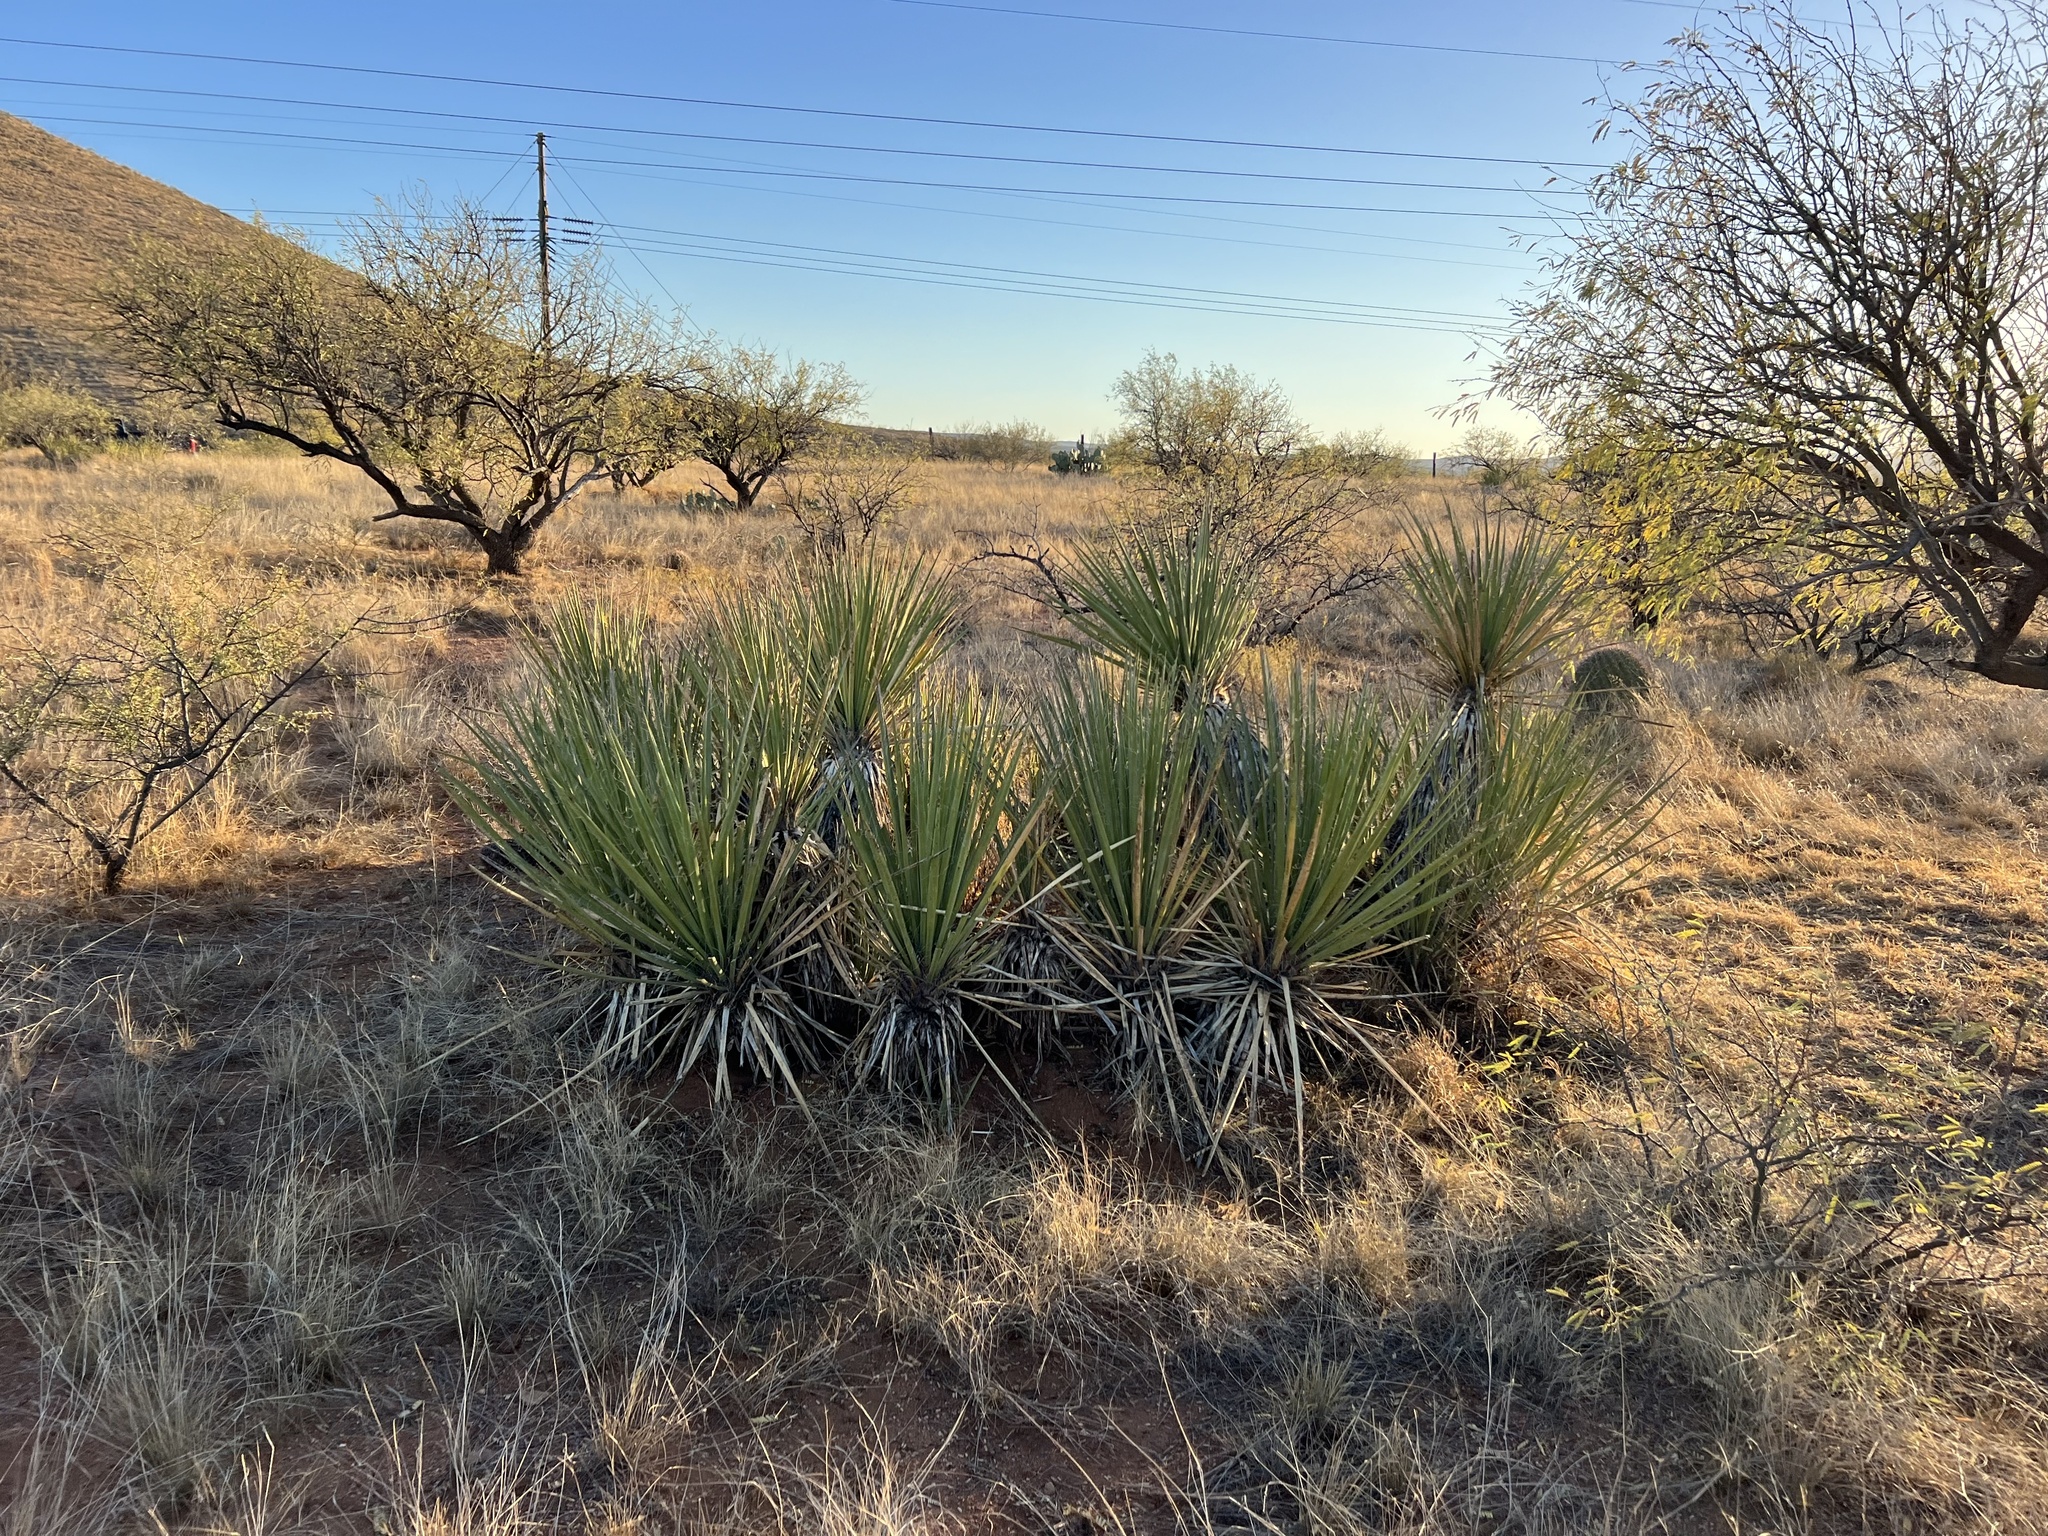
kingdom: Plantae
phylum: Tracheophyta
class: Liliopsida
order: Asparagales
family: Asparagaceae
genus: Yucca
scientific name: Yucca baccata
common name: Banana yucca
